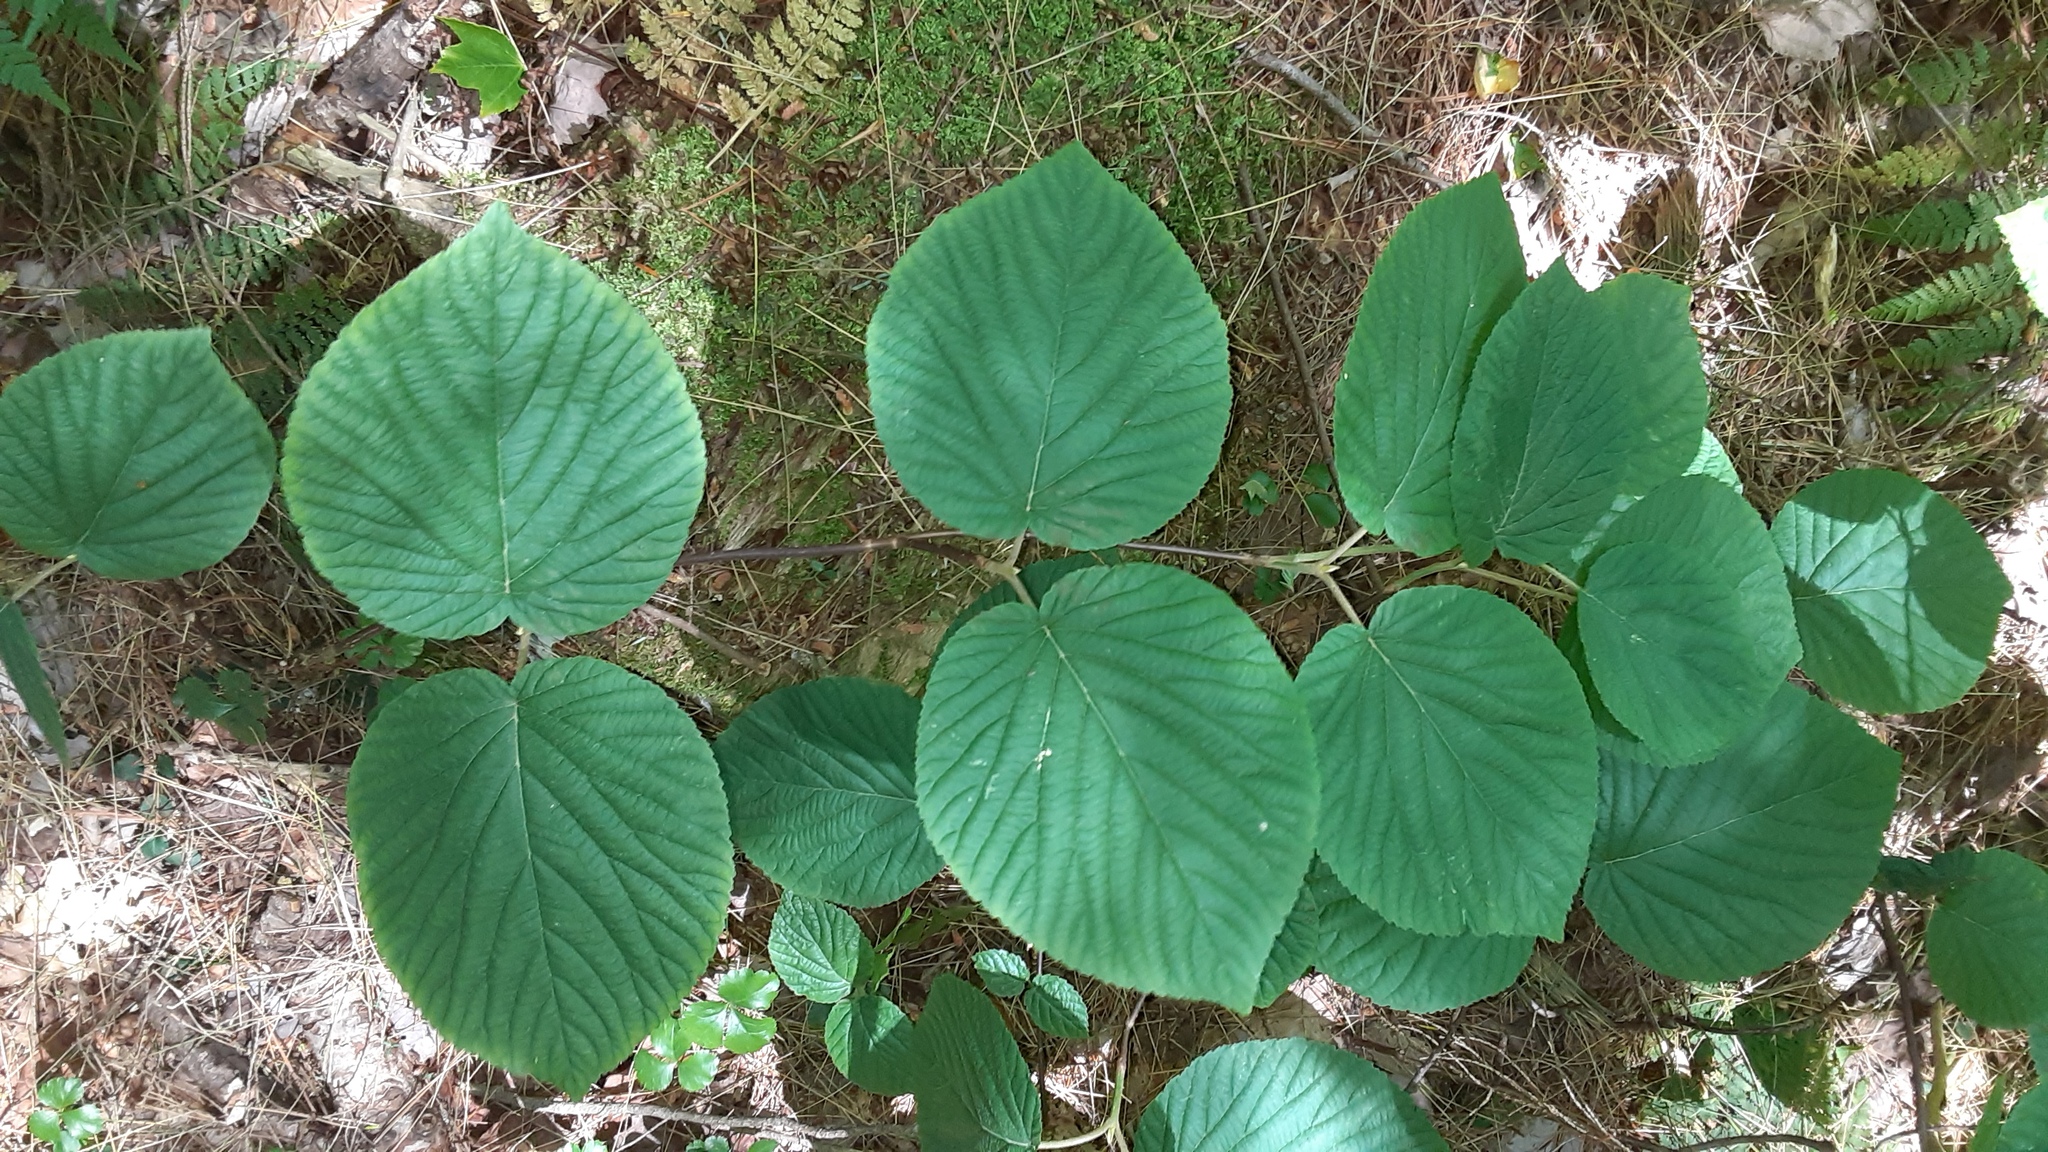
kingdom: Plantae
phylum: Tracheophyta
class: Magnoliopsida
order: Dipsacales
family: Viburnaceae
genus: Viburnum
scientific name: Viburnum lantanoides
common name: Hobblebush
